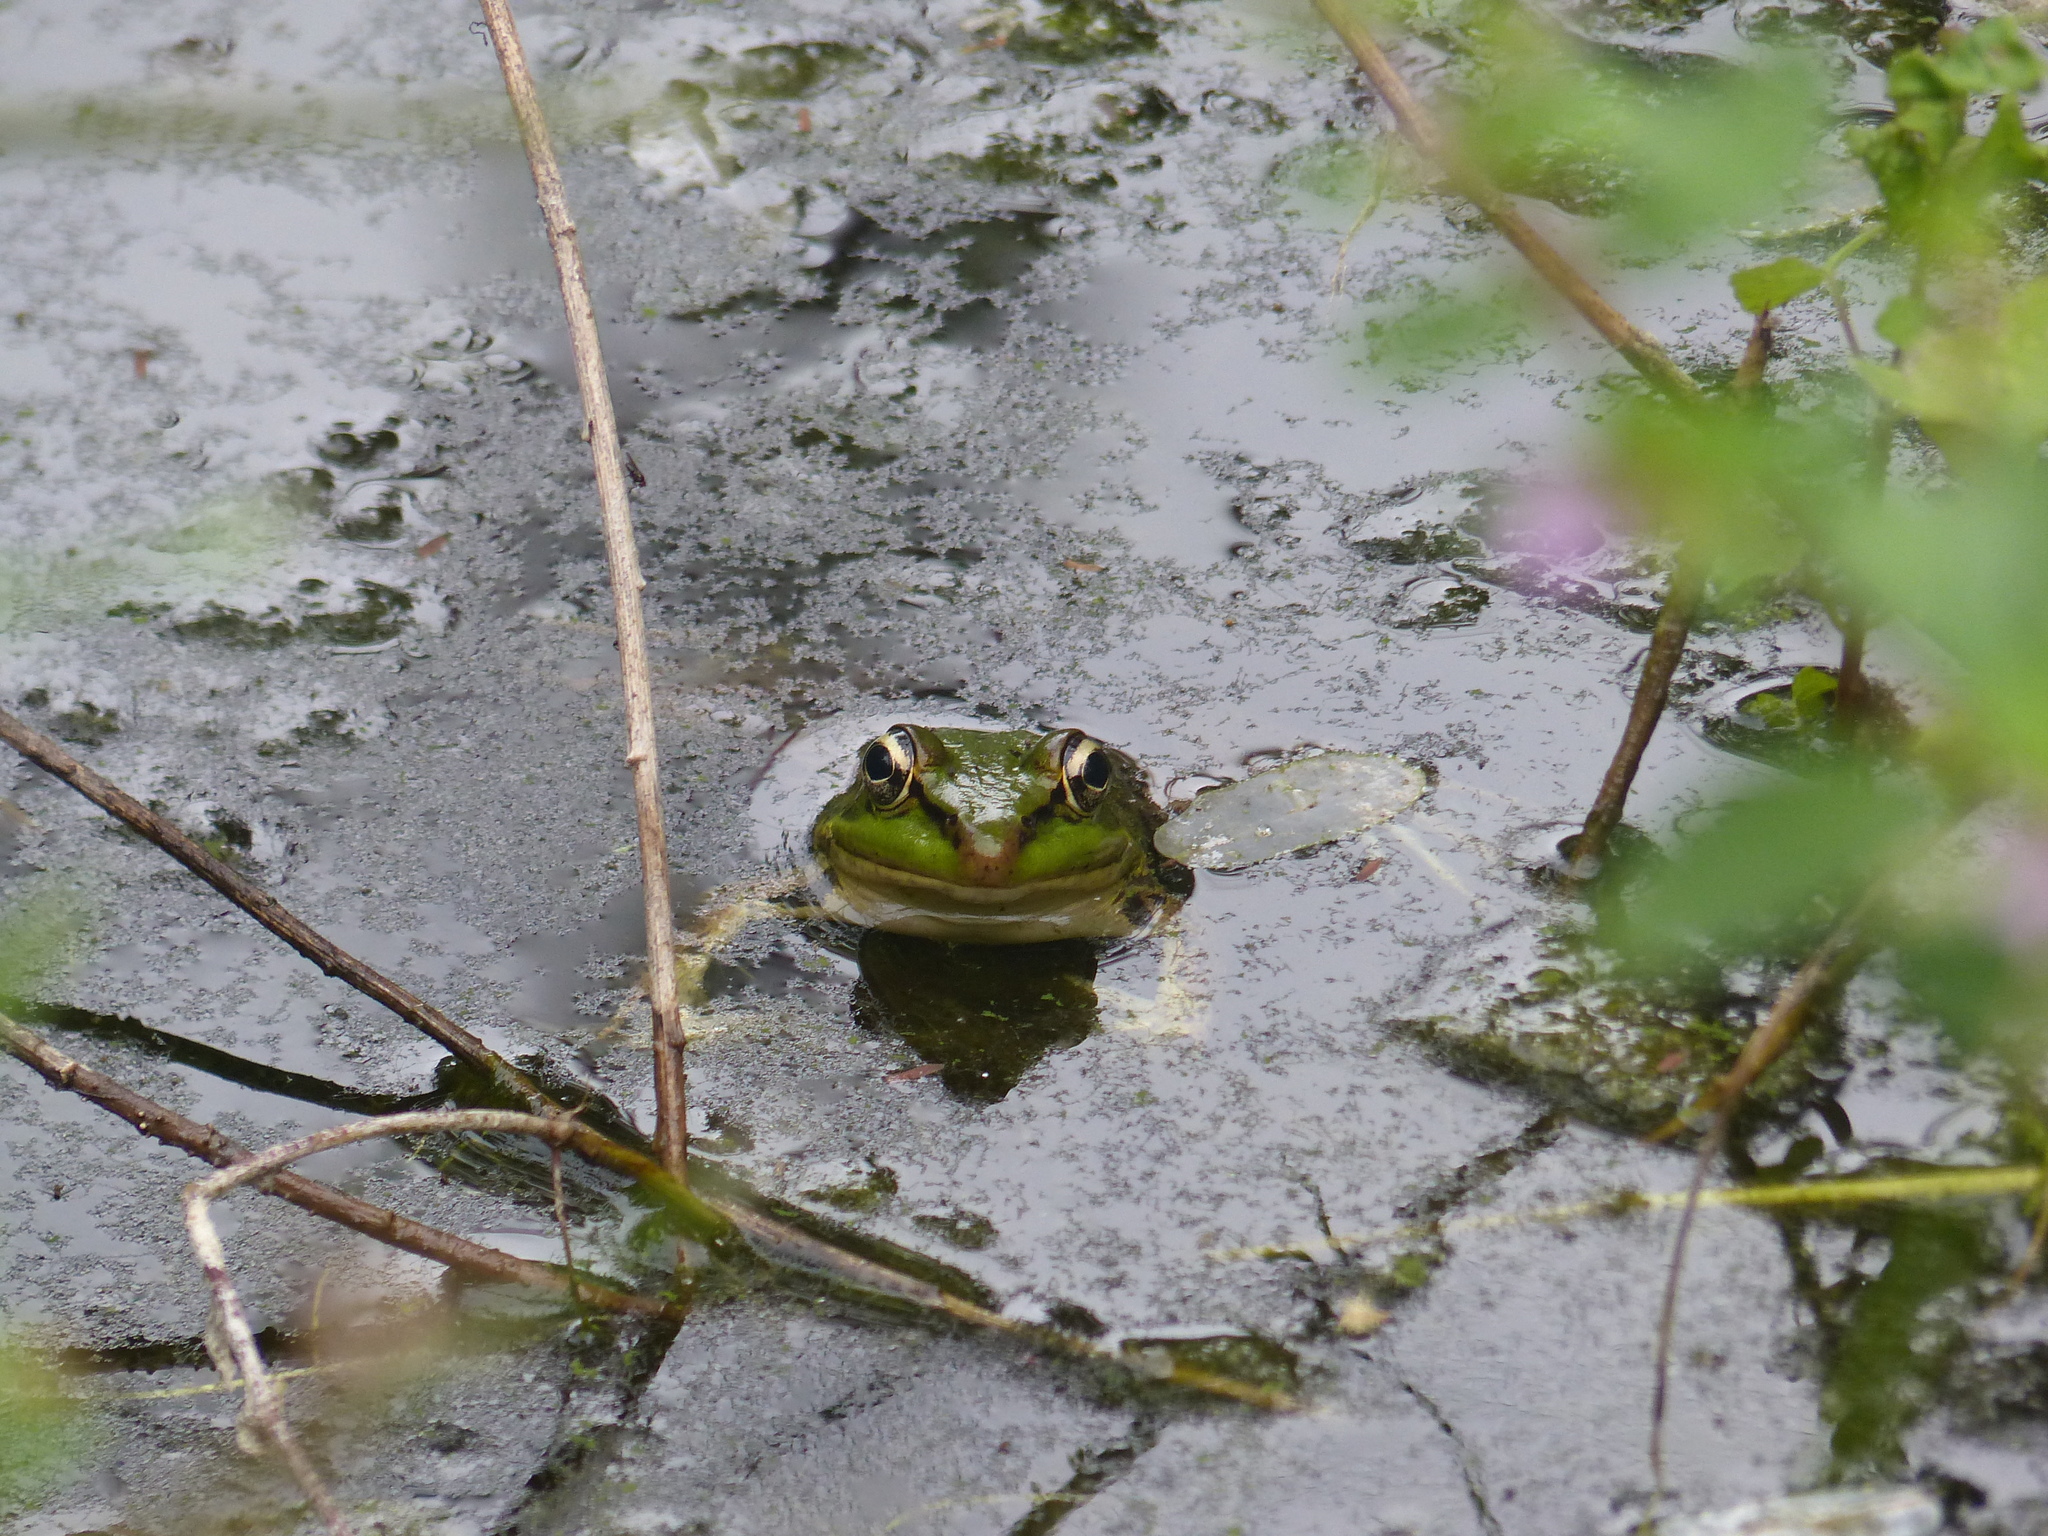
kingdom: Animalia
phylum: Chordata
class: Amphibia
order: Anura
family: Ranidae
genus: Lithobates
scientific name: Lithobates bwana
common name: Rio chipillico frog
